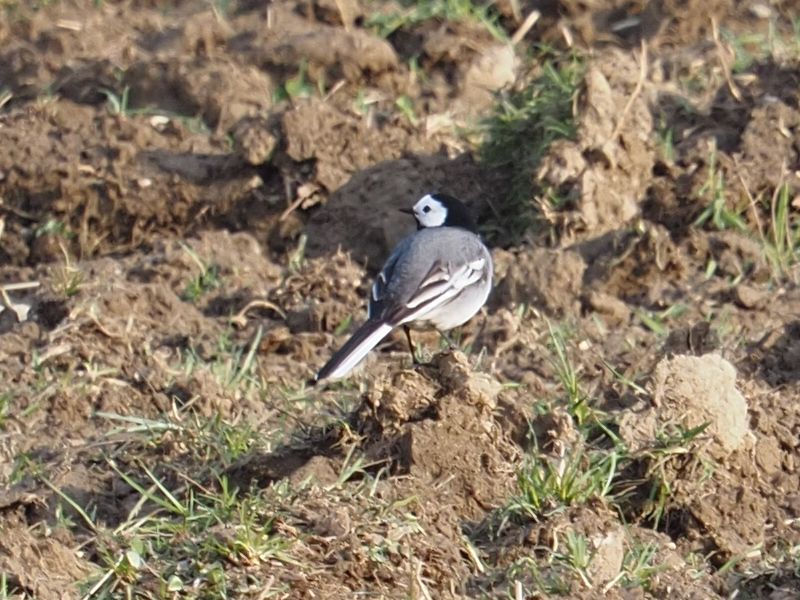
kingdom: Animalia
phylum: Chordata
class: Aves
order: Passeriformes
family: Motacillidae
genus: Motacilla
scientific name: Motacilla alba
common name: White wagtail
